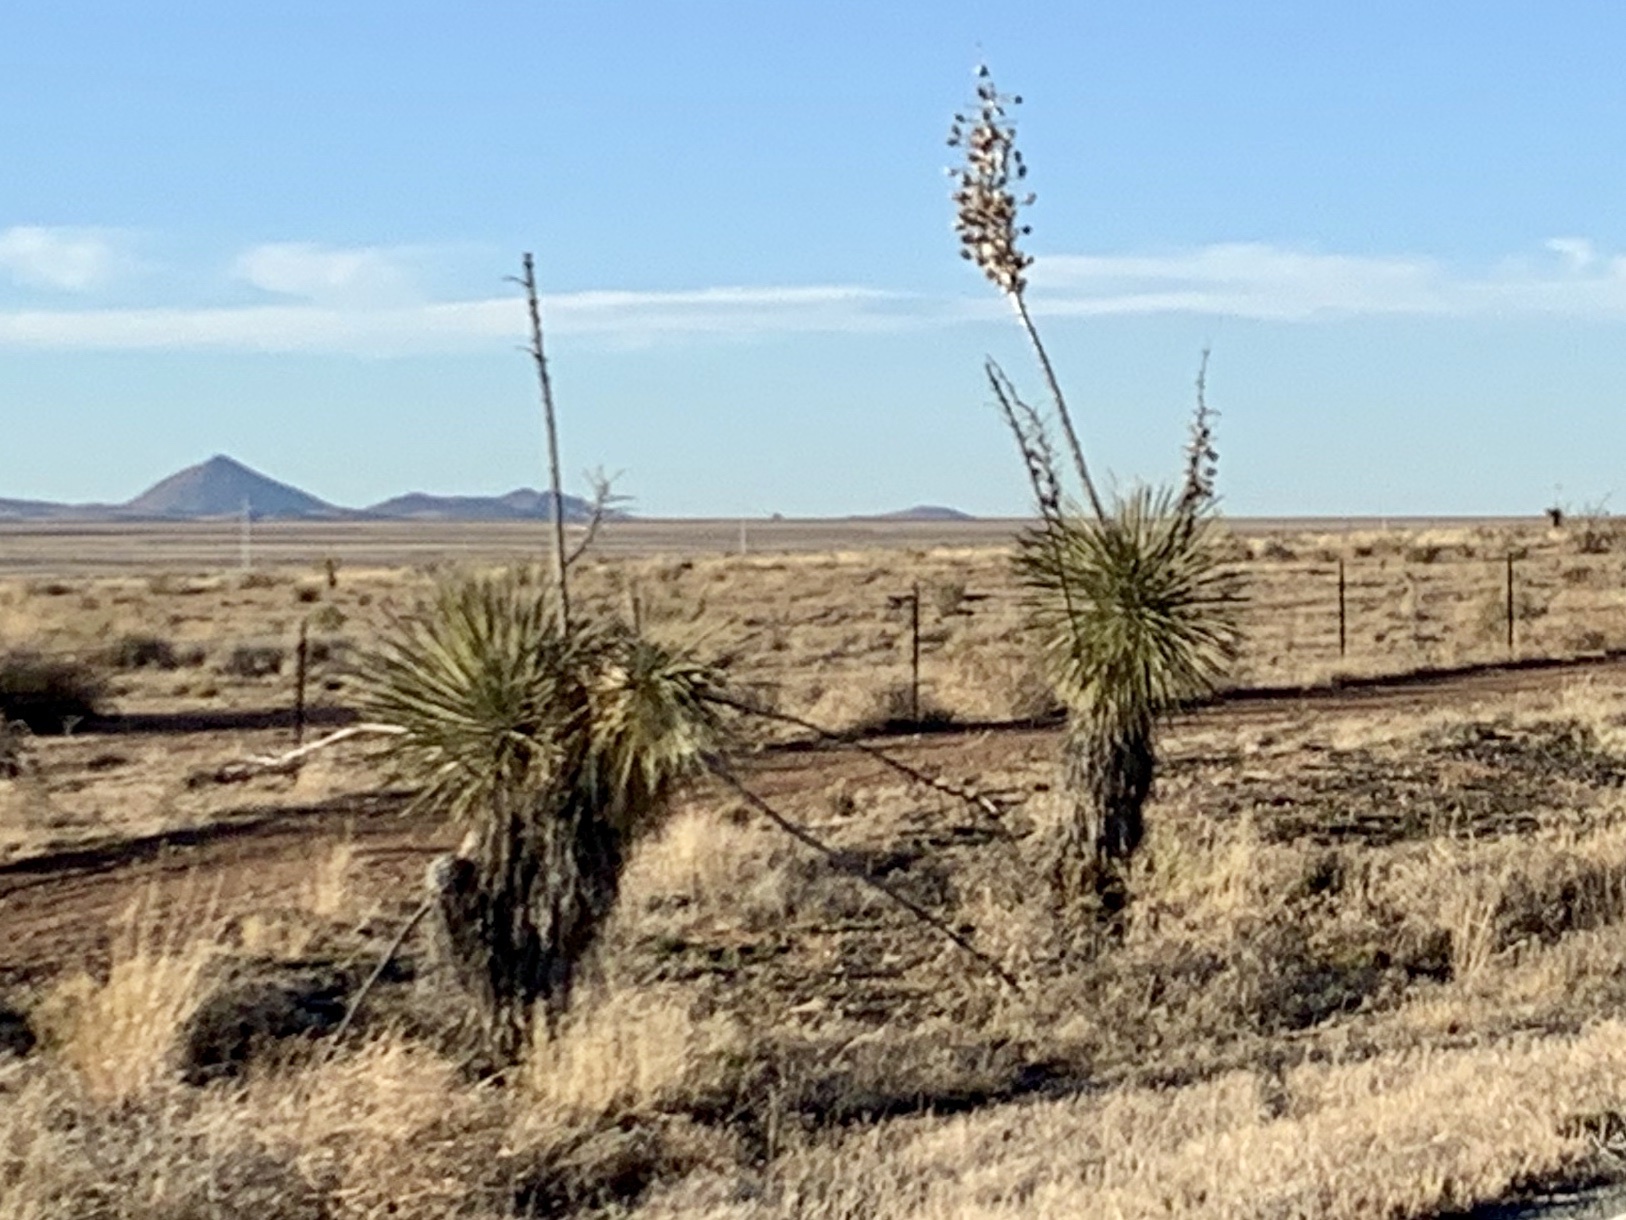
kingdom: Plantae
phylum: Tracheophyta
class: Liliopsida
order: Asparagales
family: Asparagaceae
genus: Yucca
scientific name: Yucca elata
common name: Palmella
